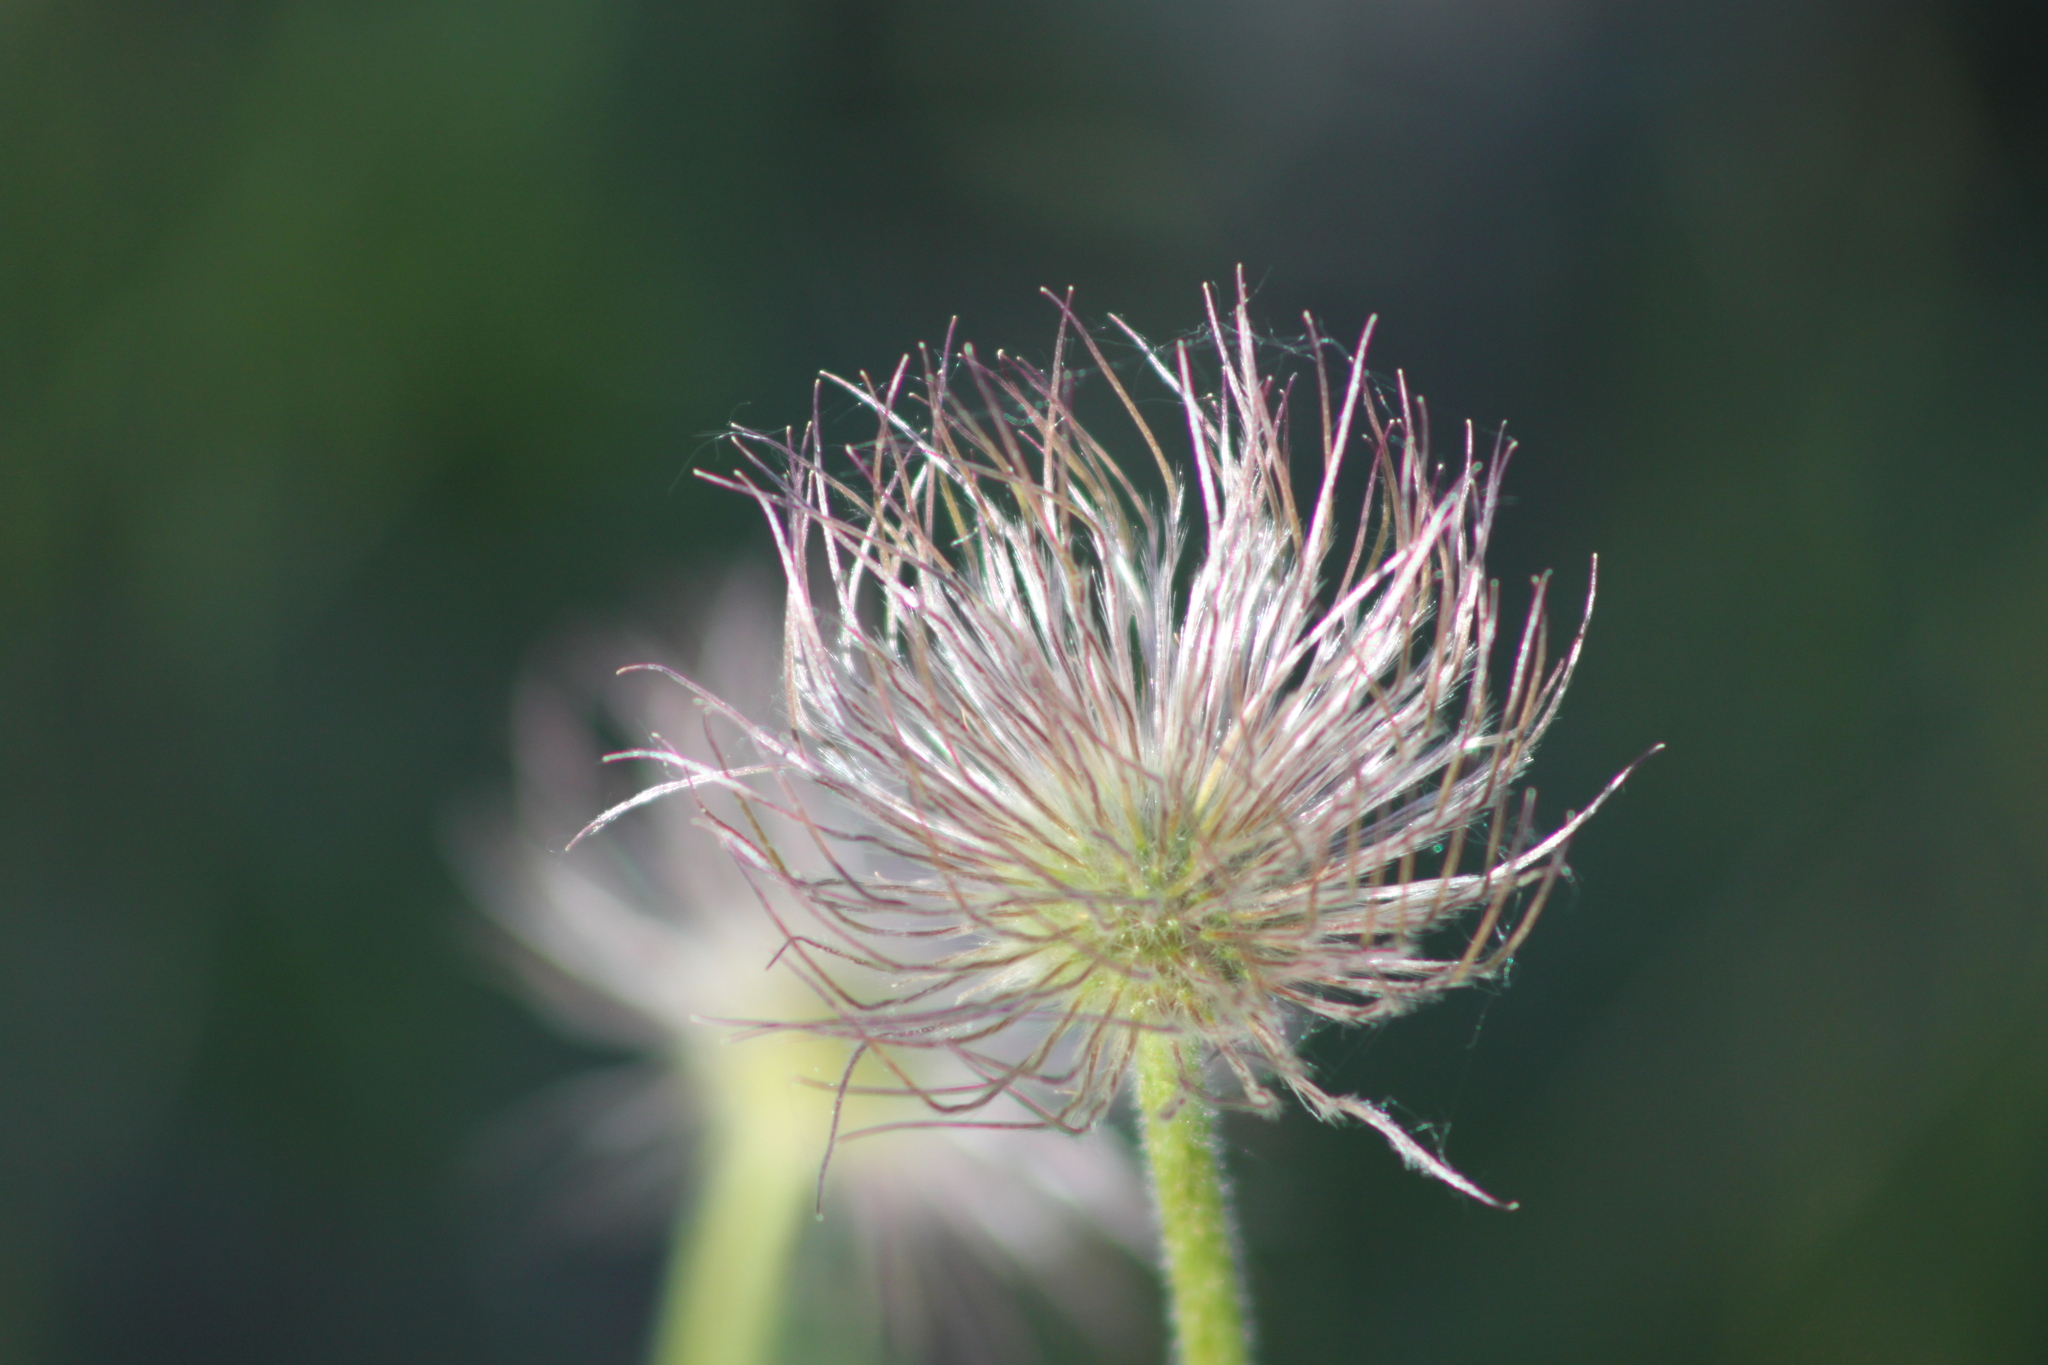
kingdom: Plantae
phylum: Tracheophyta
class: Magnoliopsida
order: Ranunculales
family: Ranunculaceae
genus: Pulsatilla
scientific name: Pulsatilla patens
